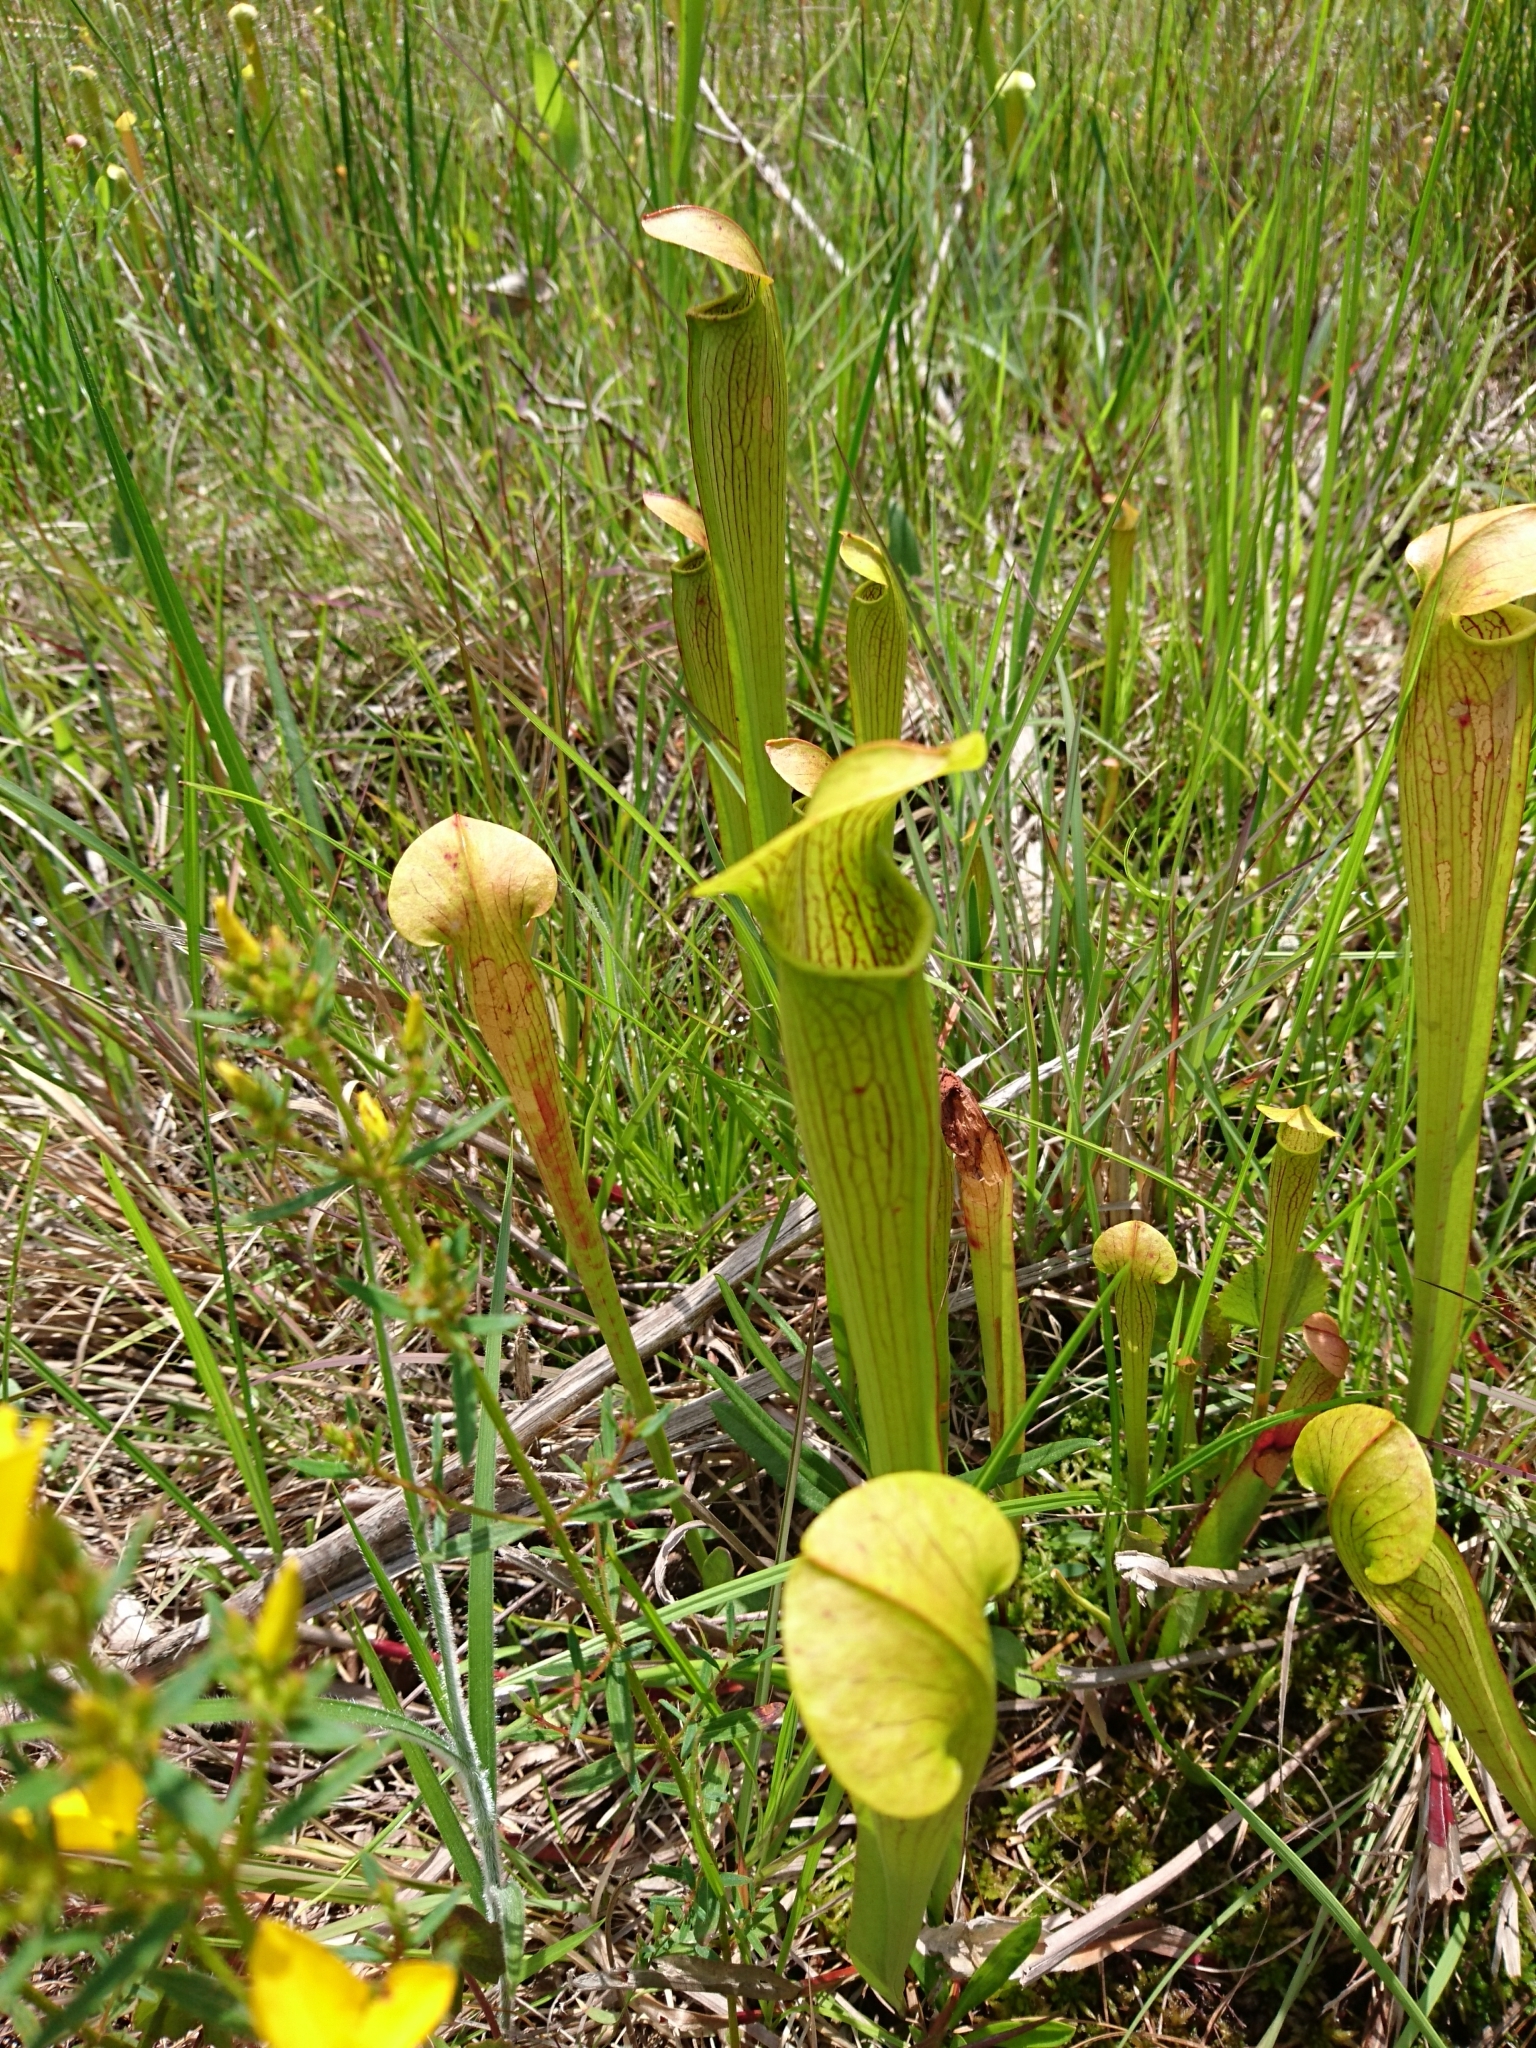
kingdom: Plantae
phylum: Tracheophyta
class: Magnoliopsida
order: Ericales
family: Sarraceniaceae
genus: Sarracenia
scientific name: Sarracenia alata
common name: Yellow trumpets
